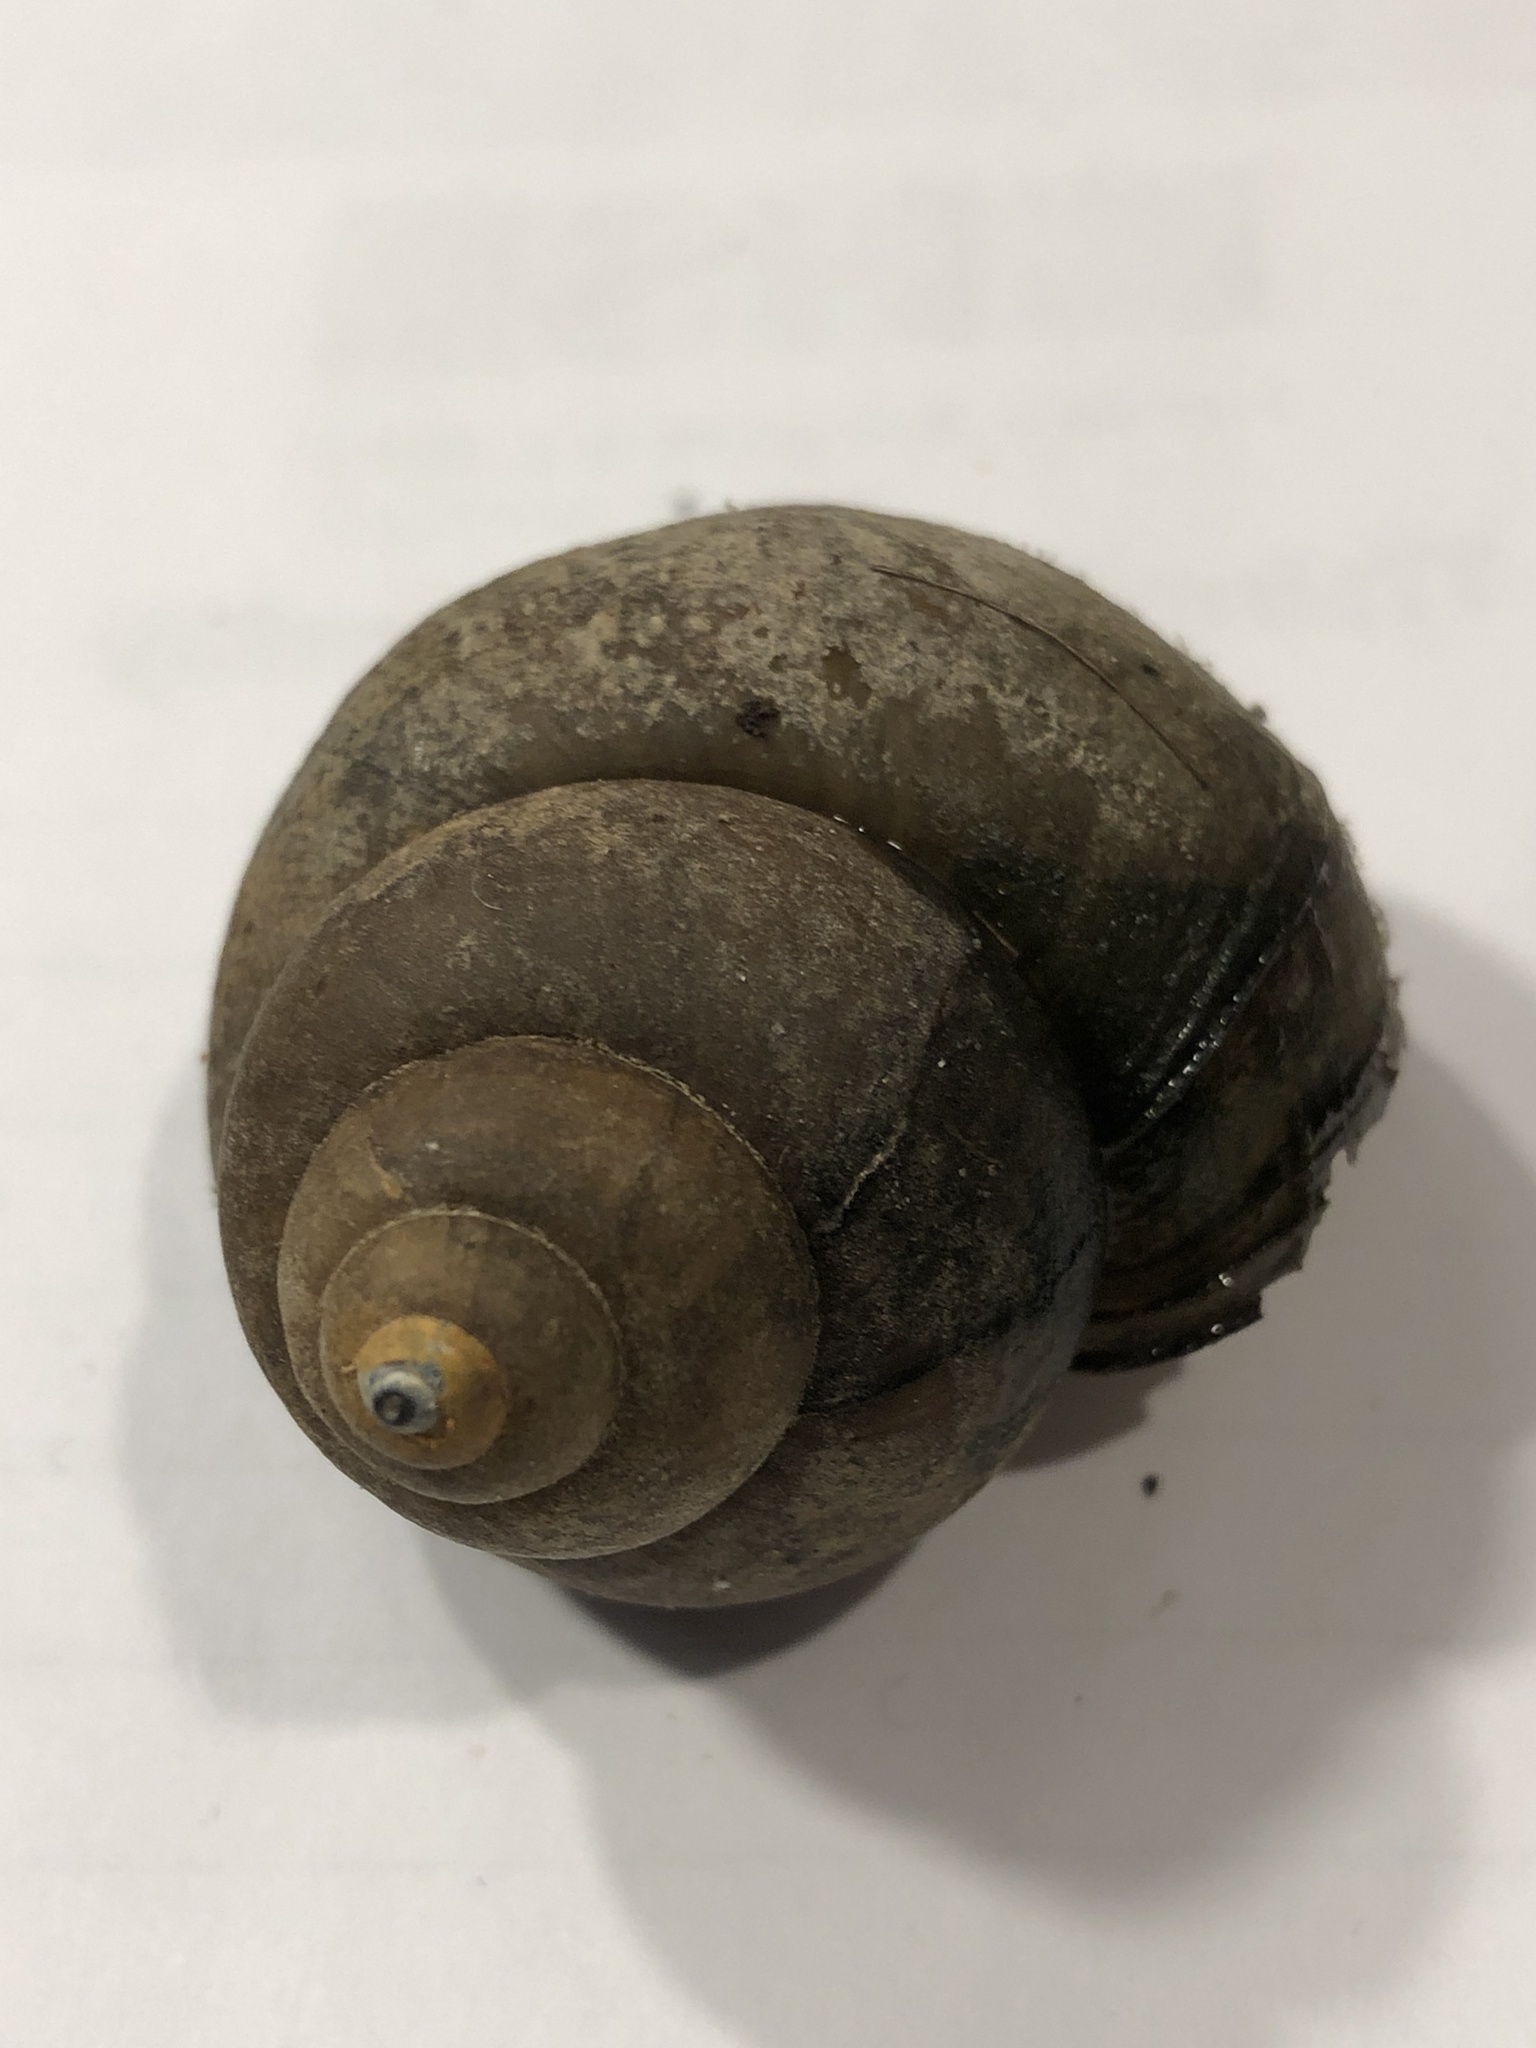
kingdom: Animalia
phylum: Mollusca
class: Gastropoda
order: Architaenioglossa
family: Viviparidae
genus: Cipangopaludina
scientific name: Cipangopaludina chinensis
